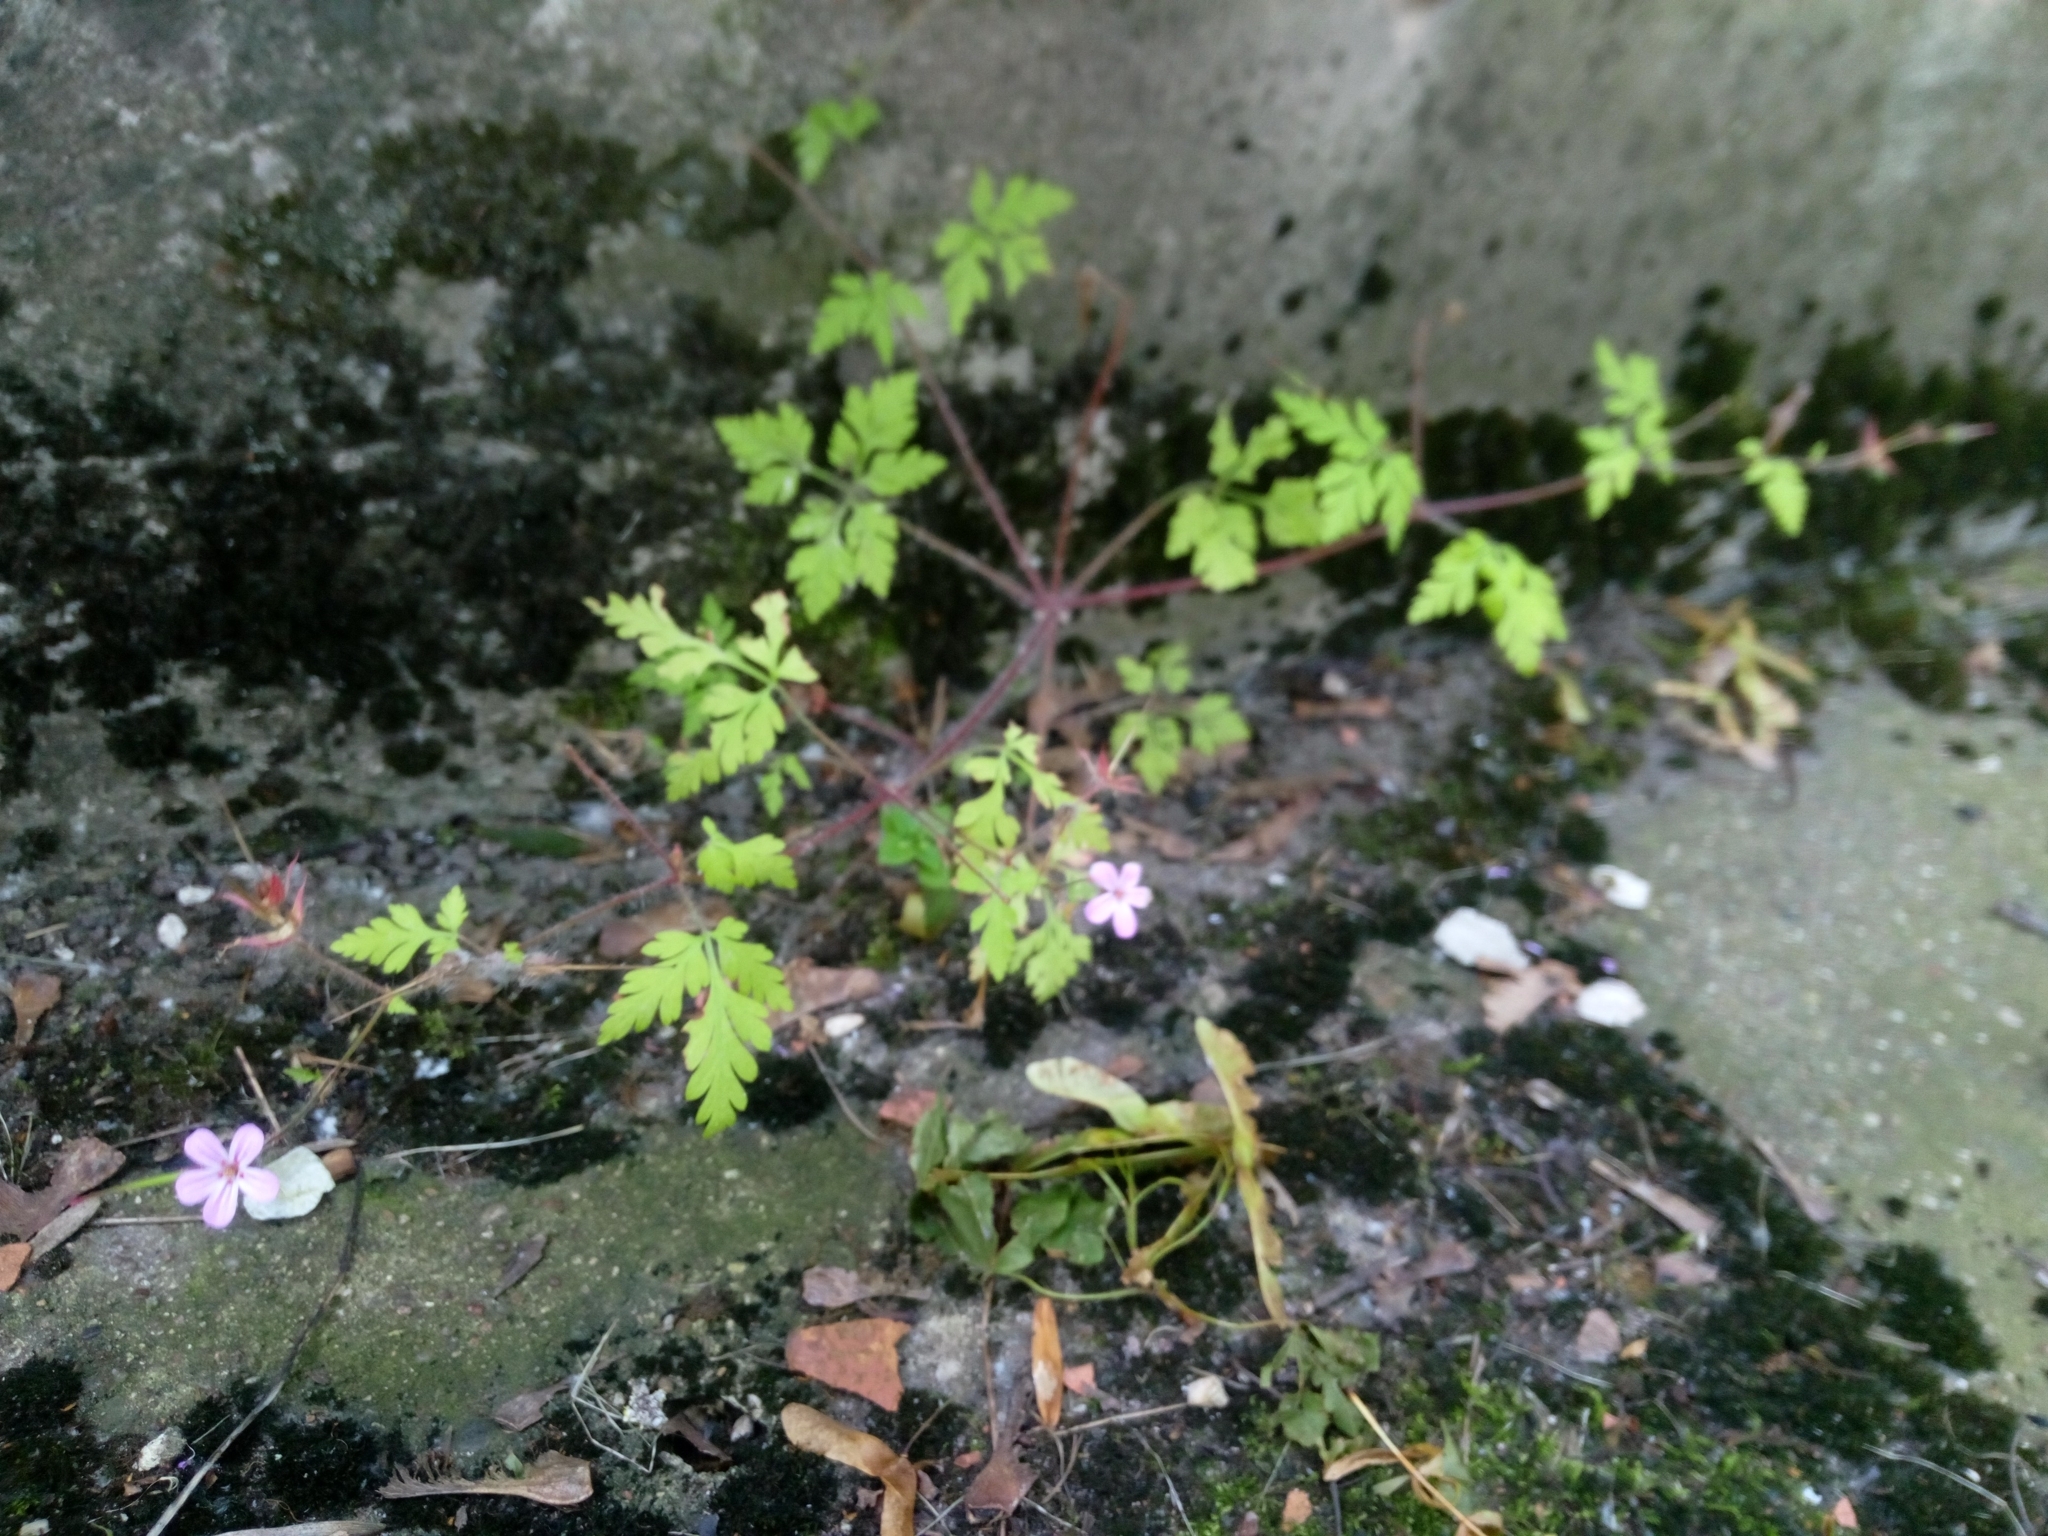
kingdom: Plantae
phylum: Tracheophyta
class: Magnoliopsida
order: Geraniales
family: Geraniaceae
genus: Geranium
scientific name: Geranium robertianum
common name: Herb-robert
